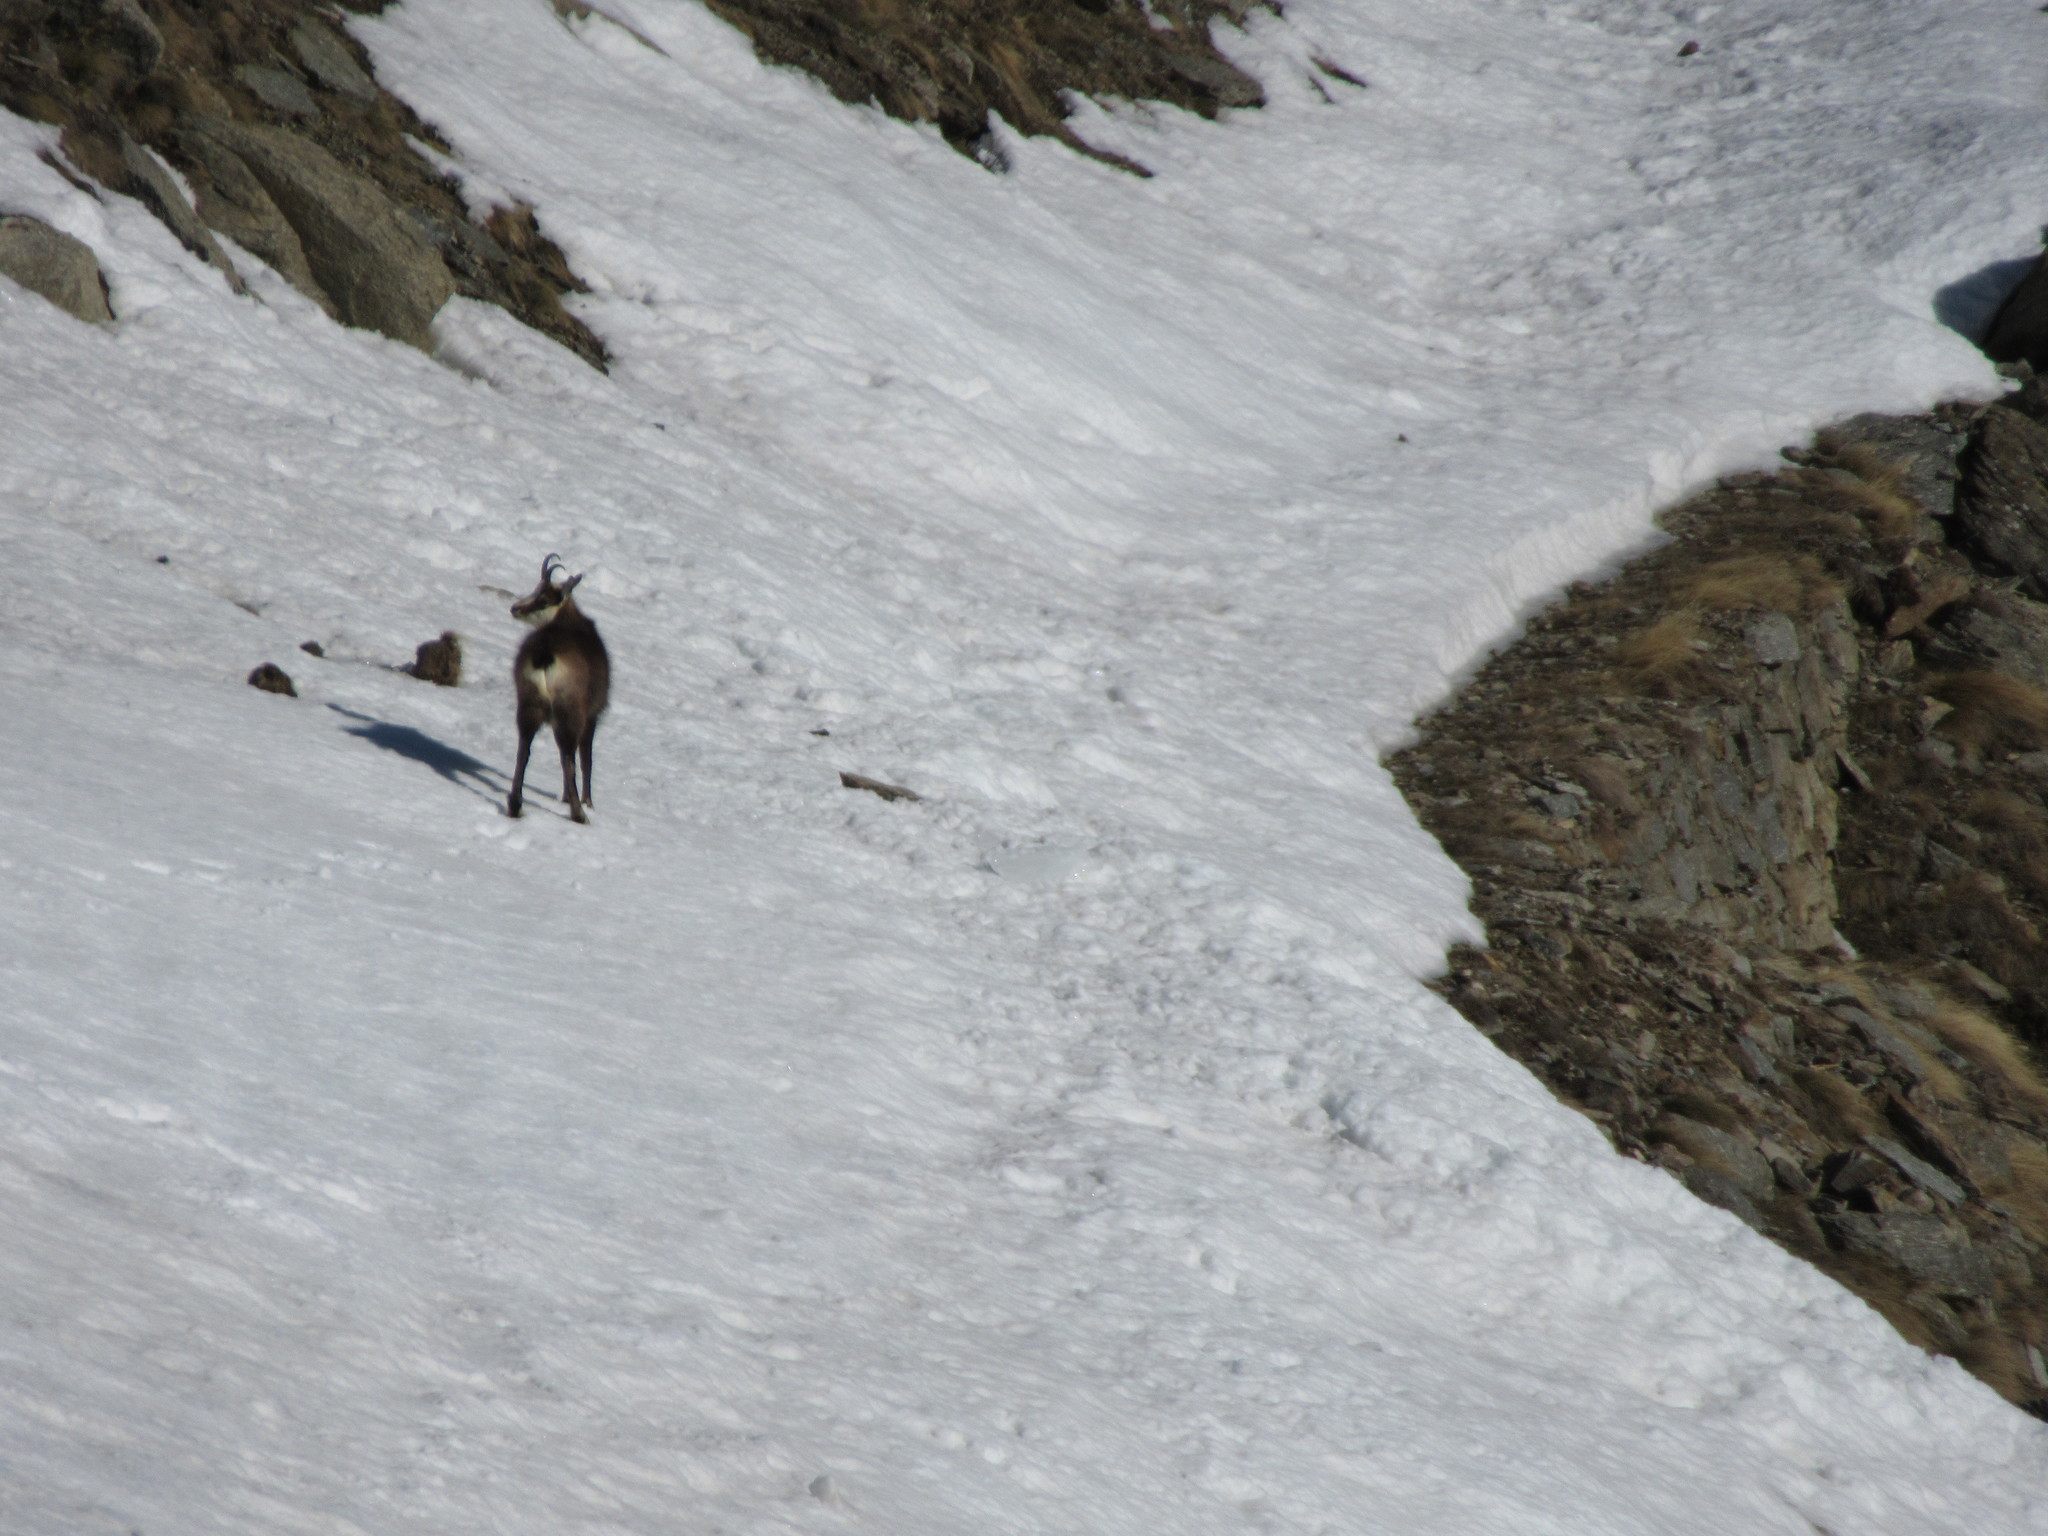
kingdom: Animalia
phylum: Chordata
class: Mammalia
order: Artiodactyla
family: Bovidae
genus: Rupicapra
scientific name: Rupicapra rupicapra
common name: Chamois
